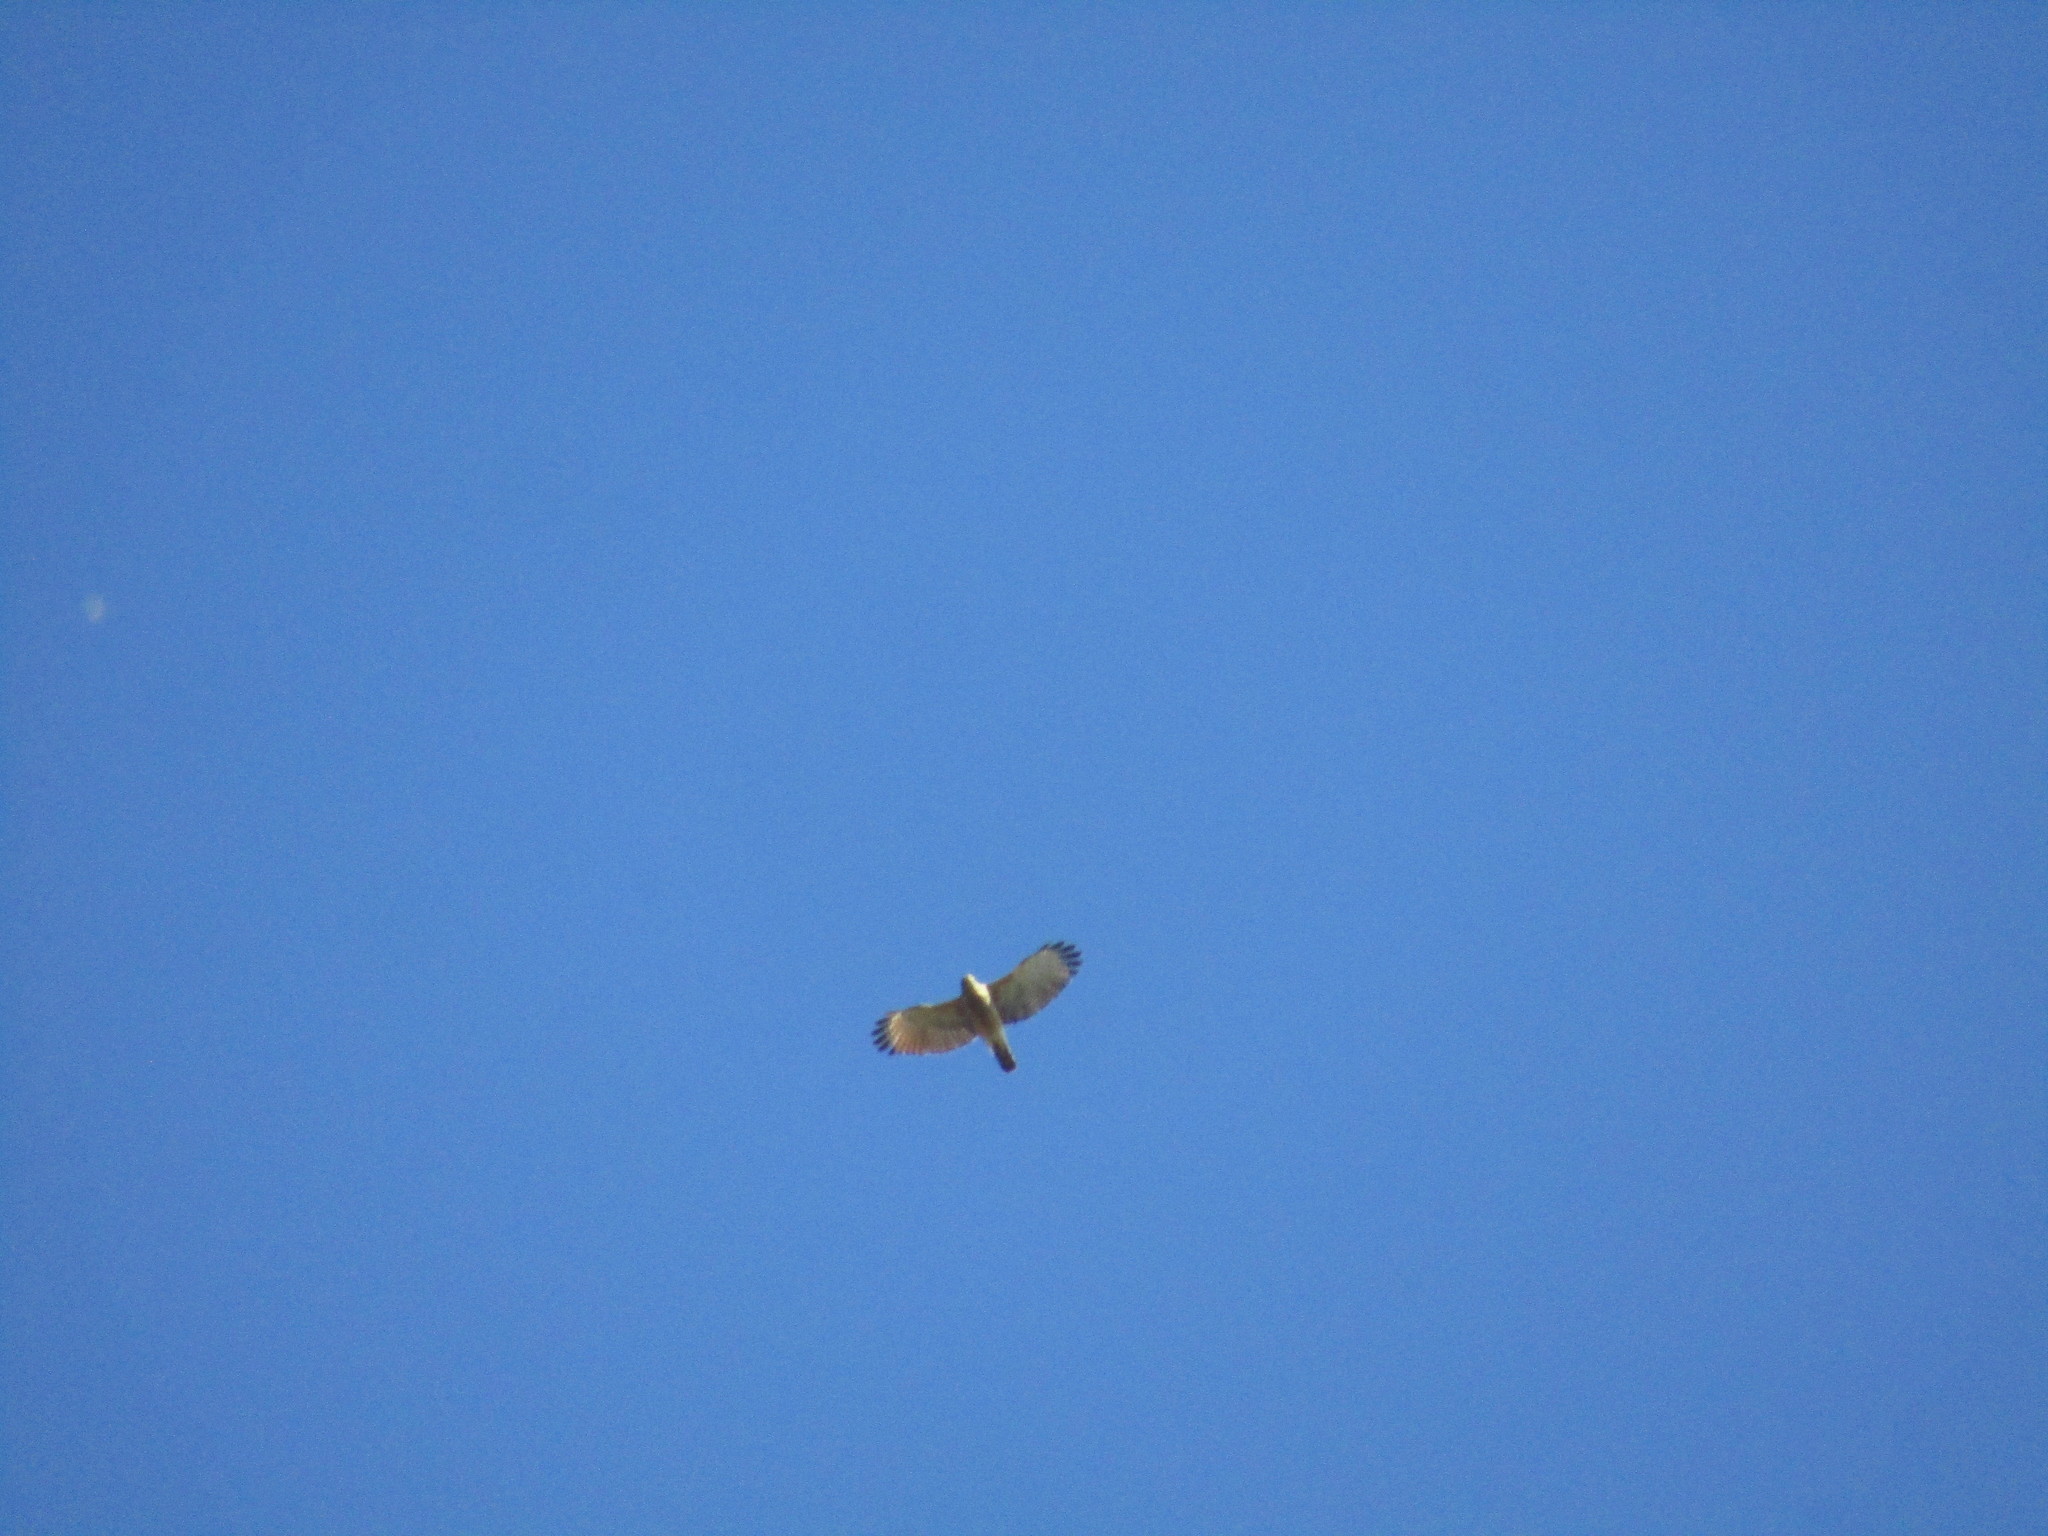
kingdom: Animalia
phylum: Chordata
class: Aves
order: Accipitriformes
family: Accipitridae
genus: Rupornis
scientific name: Rupornis magnirostris
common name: Roadside hawk
